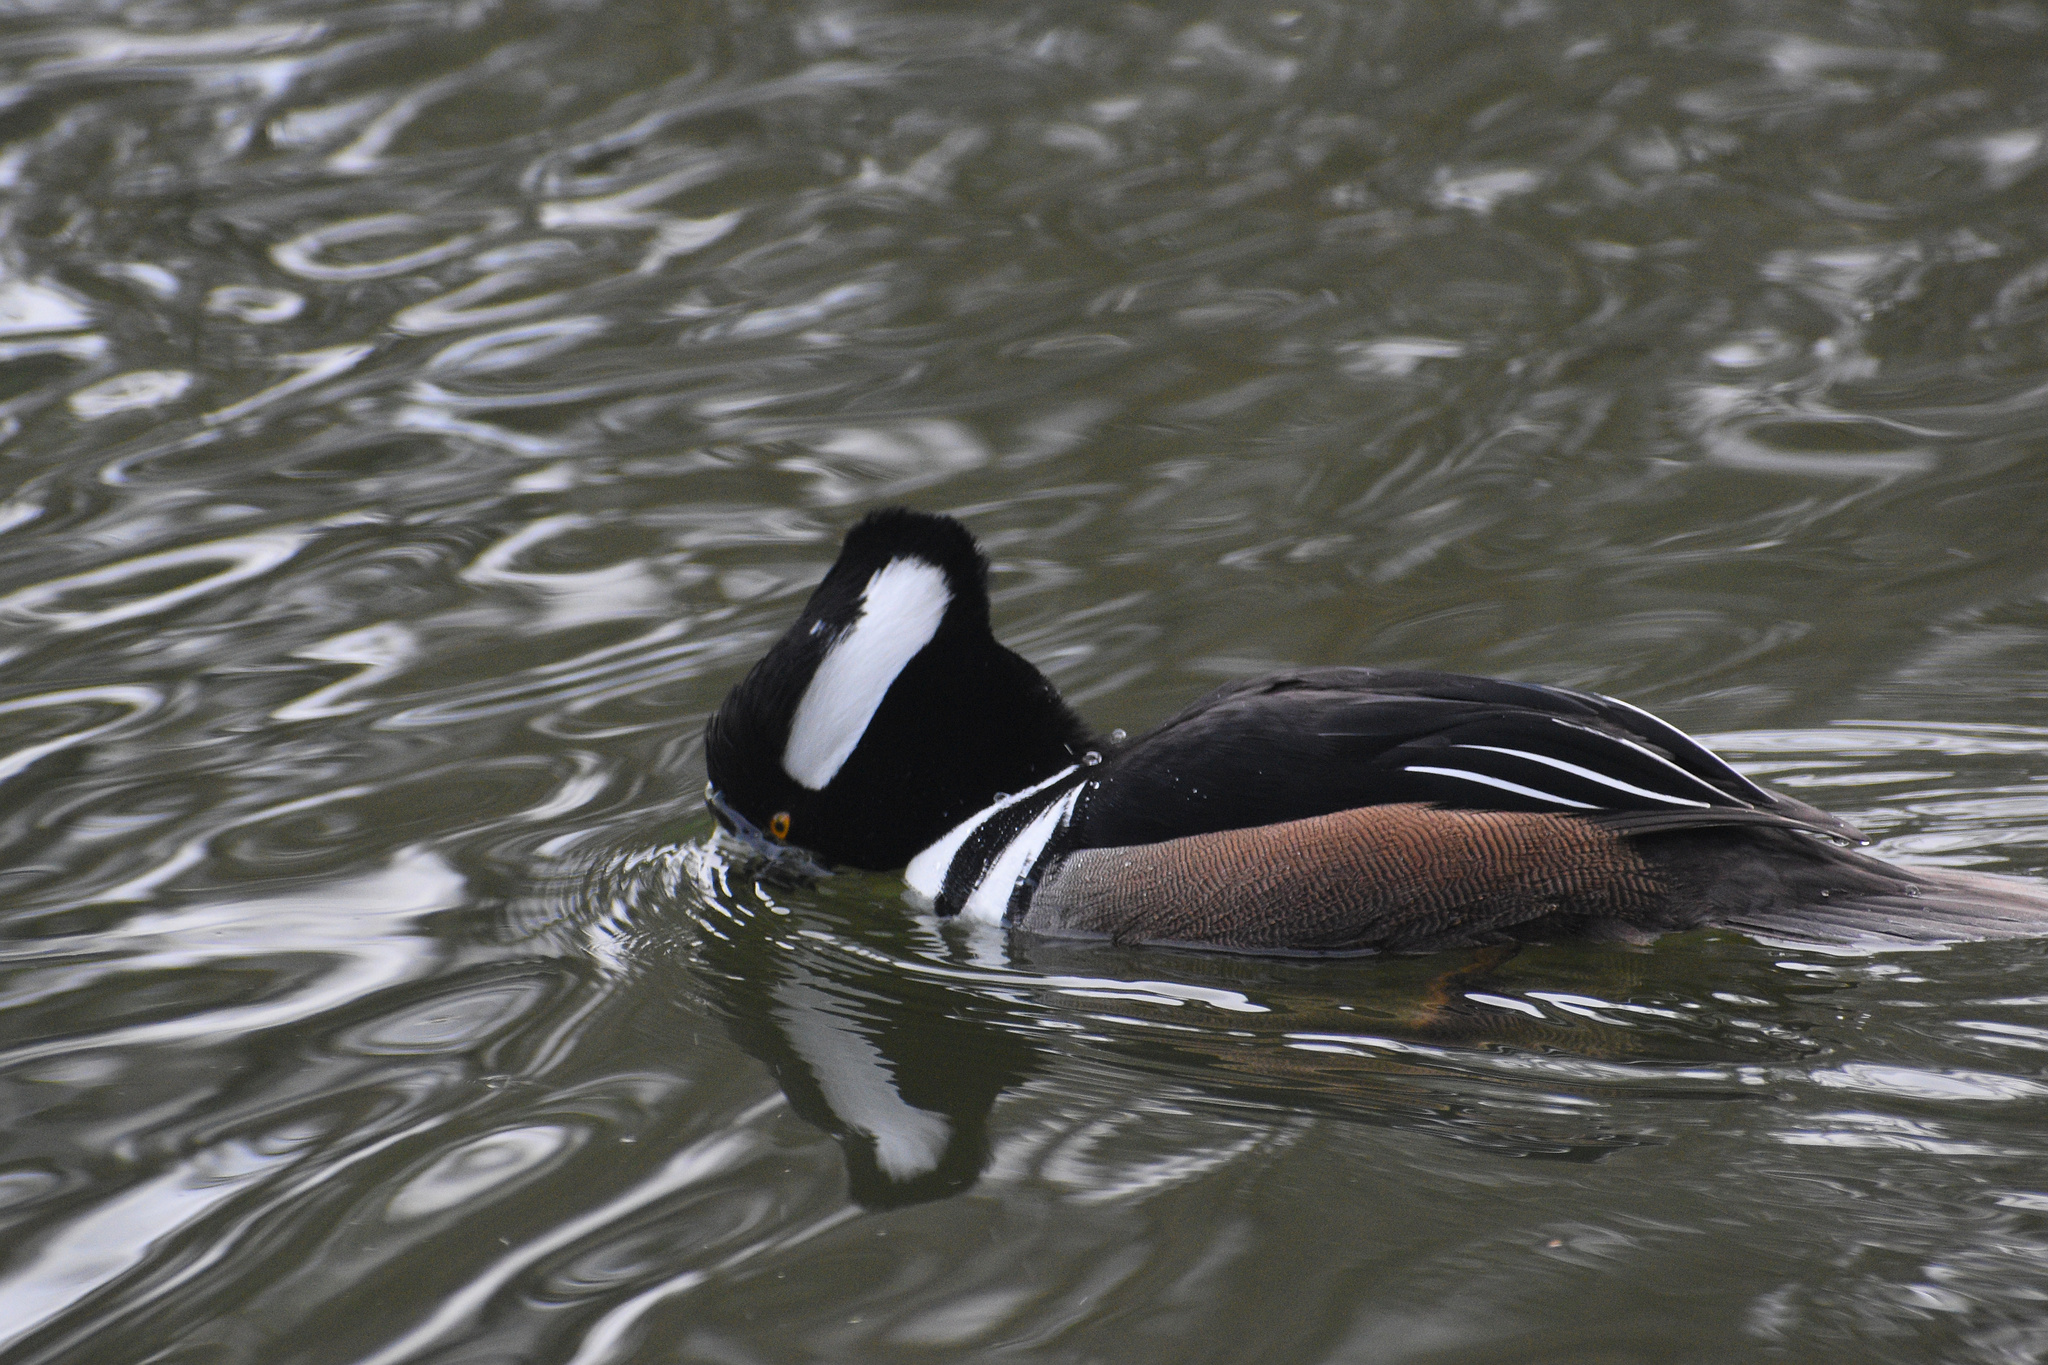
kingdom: Animalia
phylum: Chordata
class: Aves
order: Anseriformes
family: Anatidae
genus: Lophodytes
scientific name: Lophodytes cucullatus
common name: Hooded merganser
